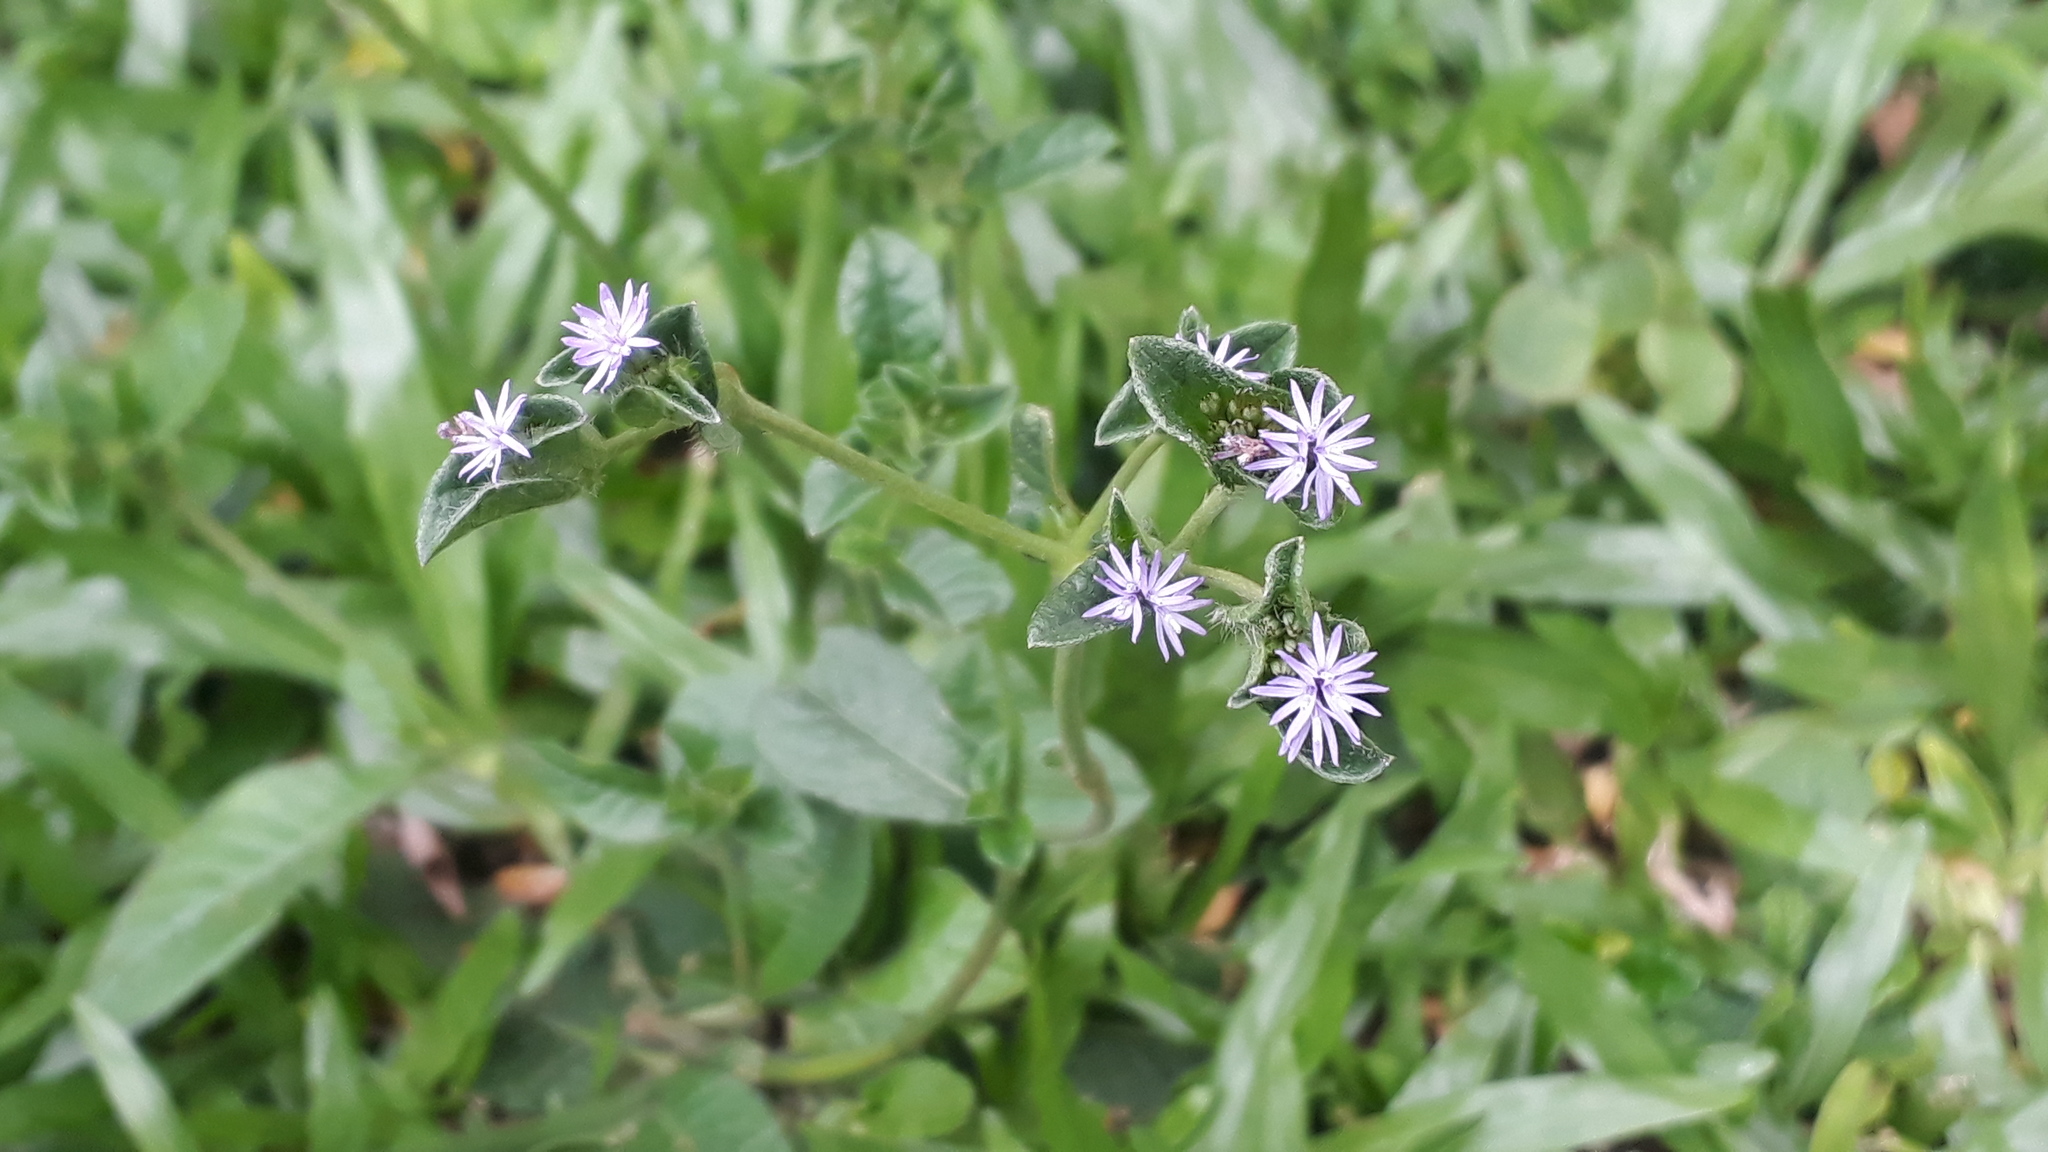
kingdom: Plantae
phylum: Tracheophyta
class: Magnoliopsida
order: Asterales
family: Asteraceae
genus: Elephantopus
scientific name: Elephantopus mollis
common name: Soft elephantsfoot
